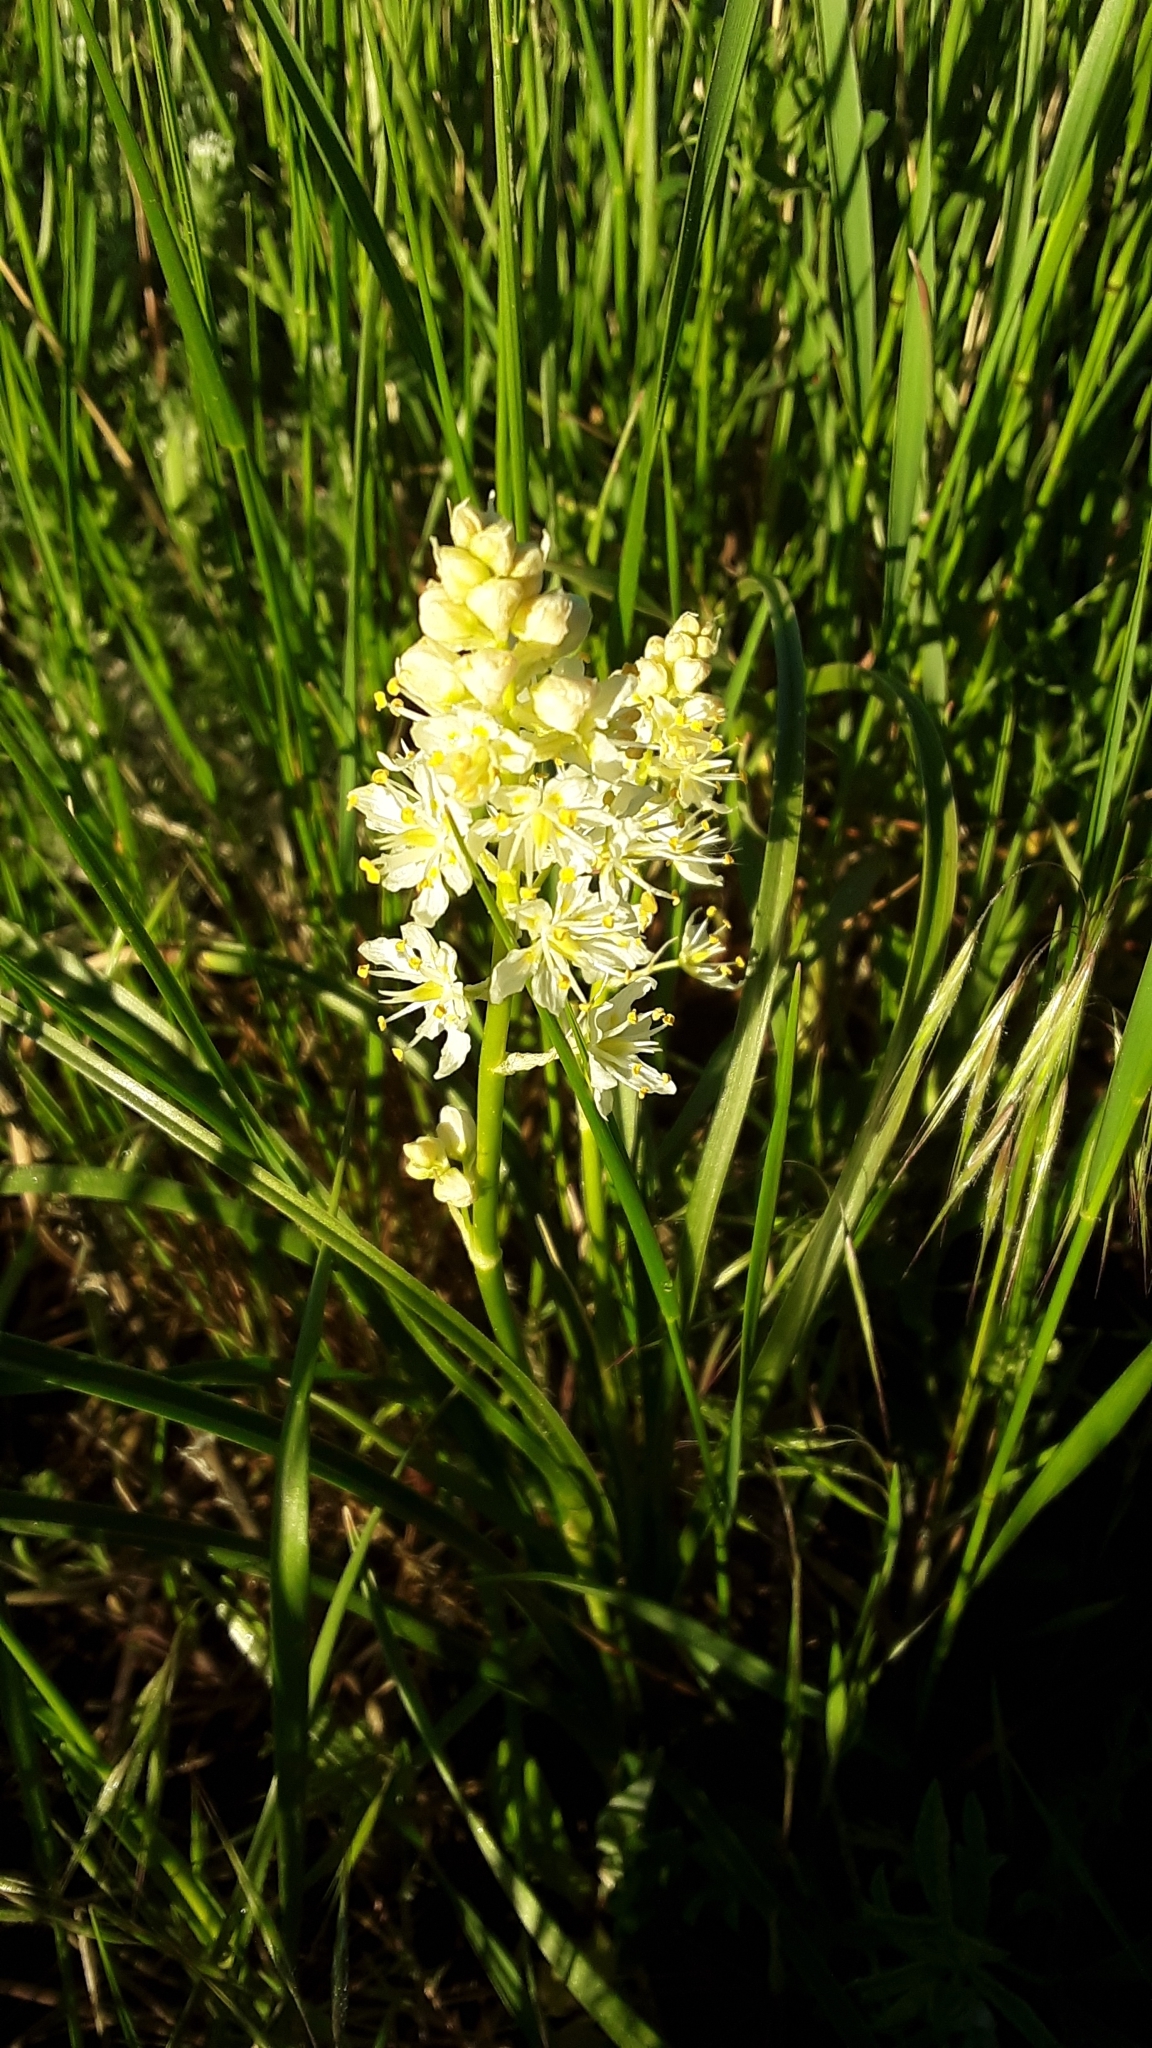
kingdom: Plantae
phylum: Tracheophyta
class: Liliopsida
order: Liliales
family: Melanthiaceae
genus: Toxicoscordion
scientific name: Toxicoscordion venenosum
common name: Meadow death camas
